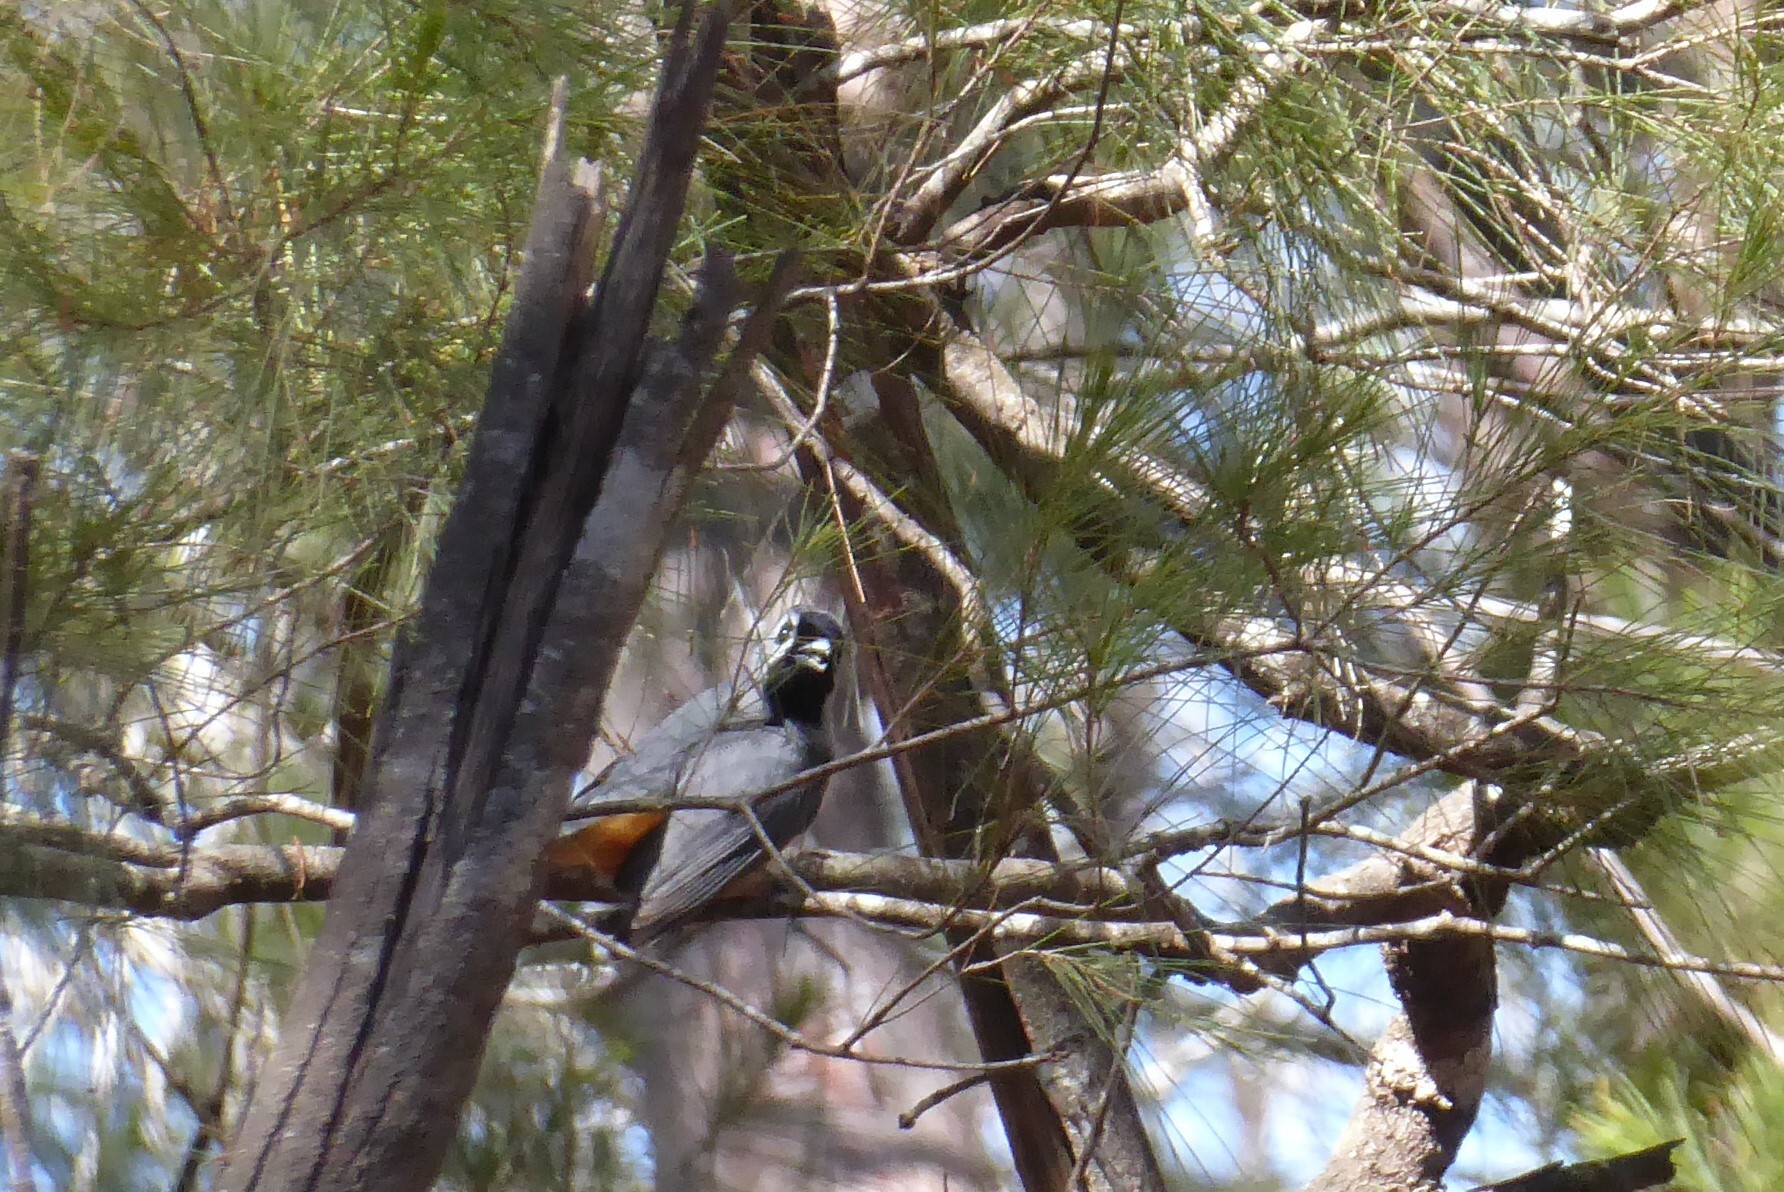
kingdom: Animalia
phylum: Chordata
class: Aves
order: Passeriformes
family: Monarchidae
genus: Monarcha
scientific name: Monarcha melanopsis
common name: Black-faced monarch
